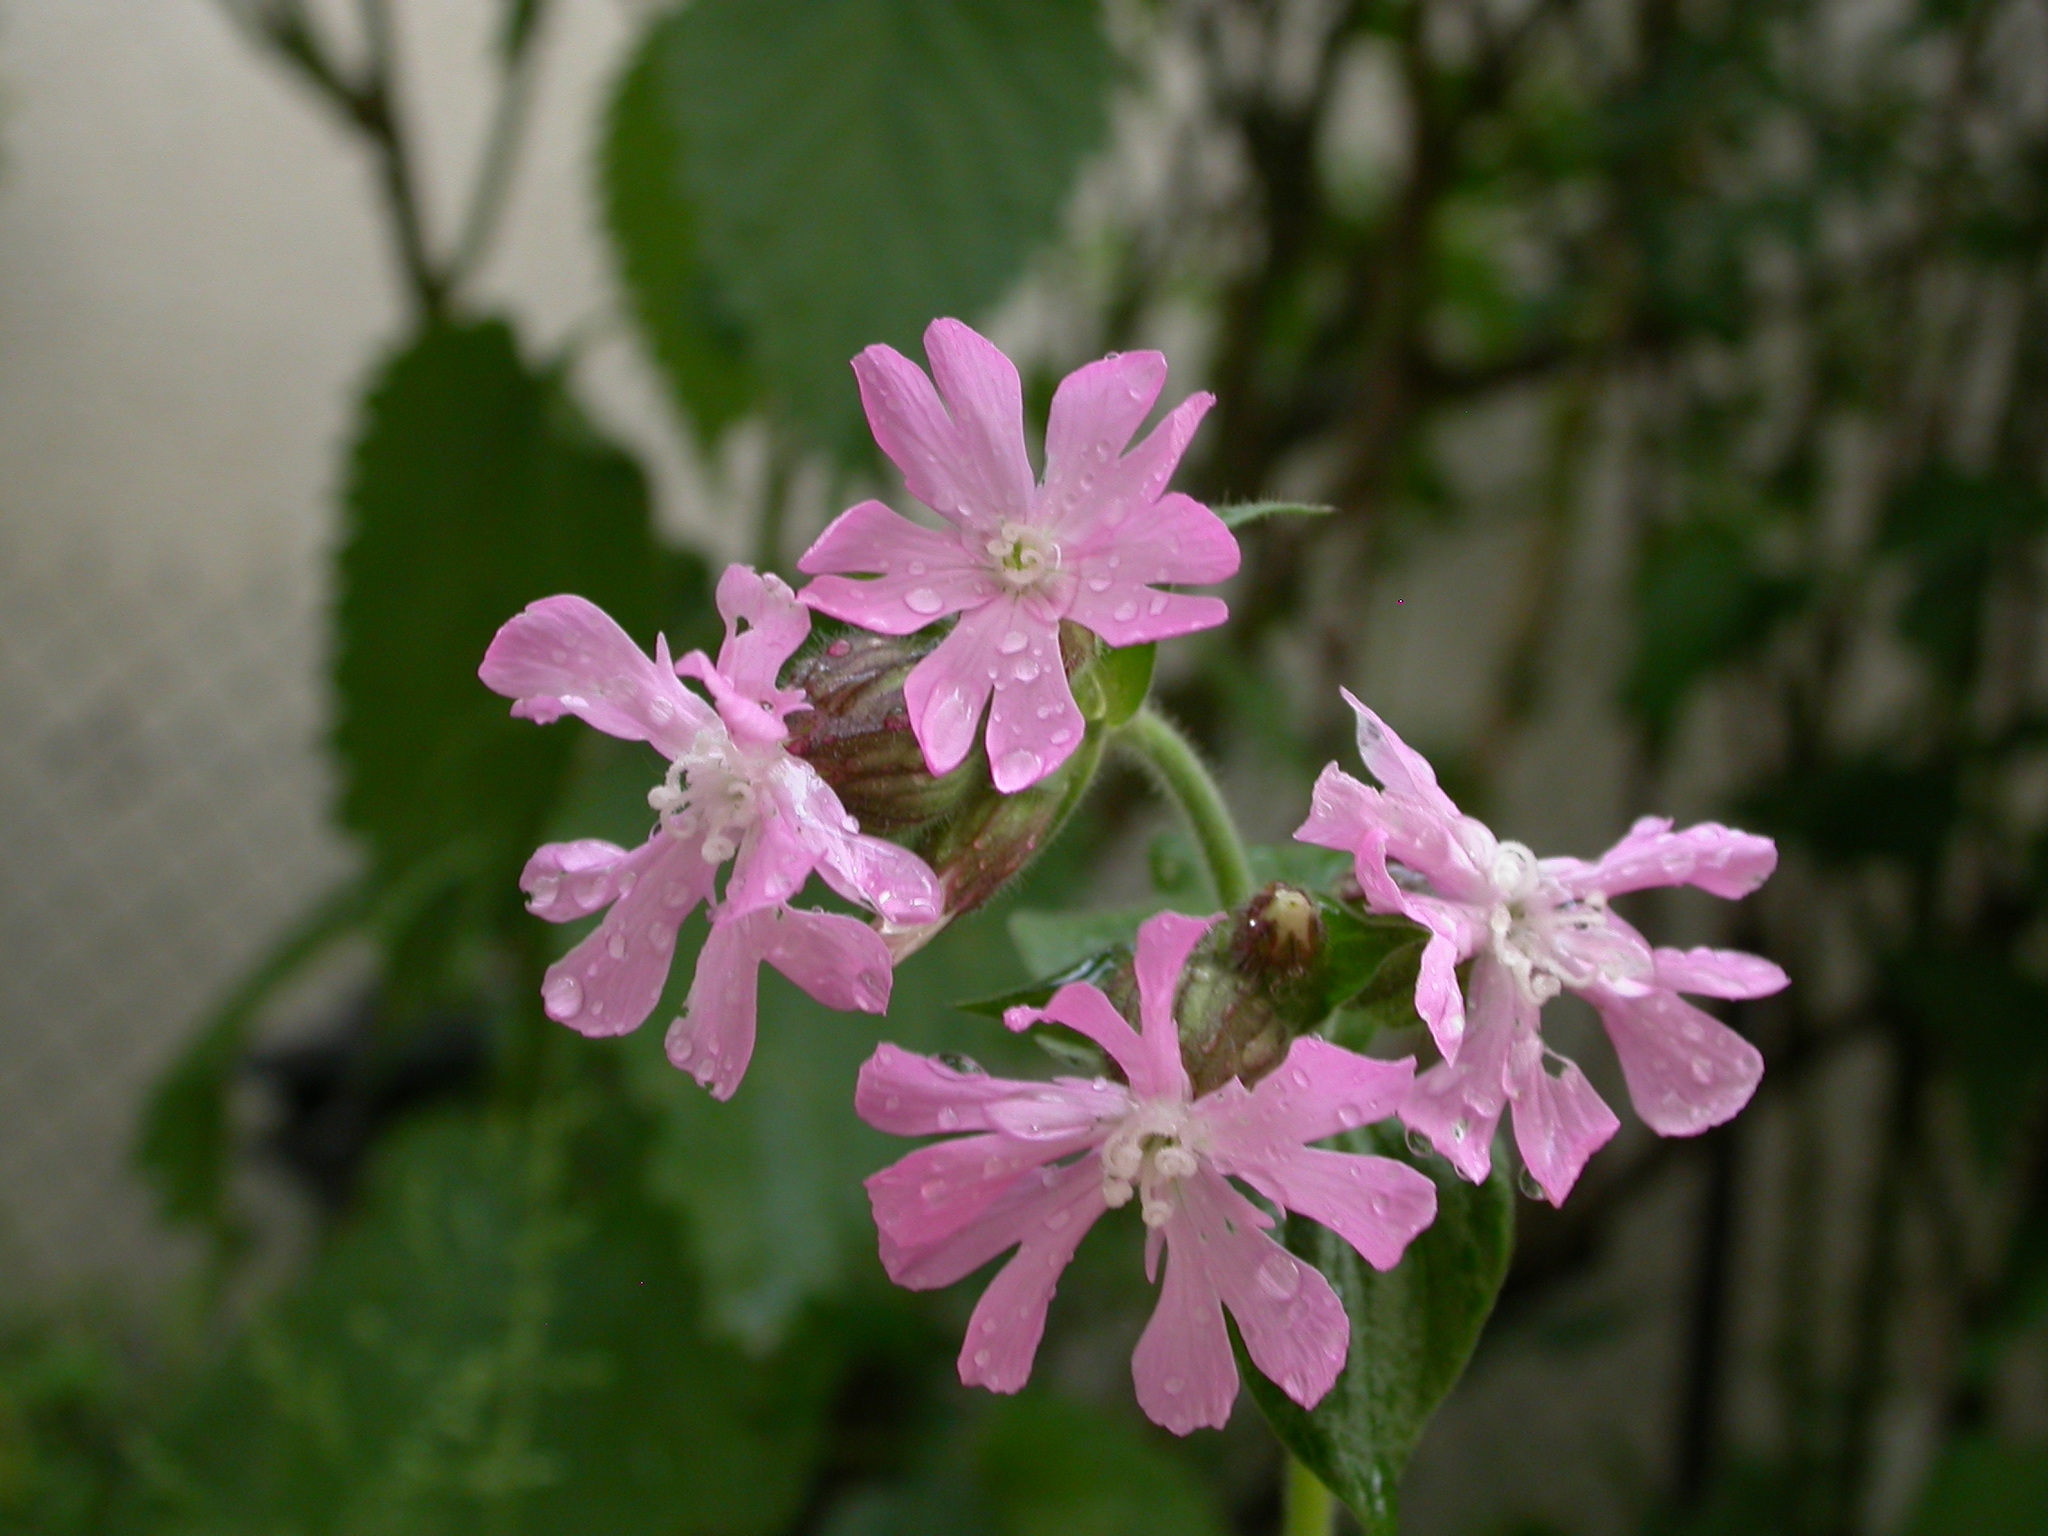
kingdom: Plantae
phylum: Tracheophyta
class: Magnoliopsida
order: Caryophyllales
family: Caryophyllaceae
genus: Silene
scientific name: Silene dioica
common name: Red campion
